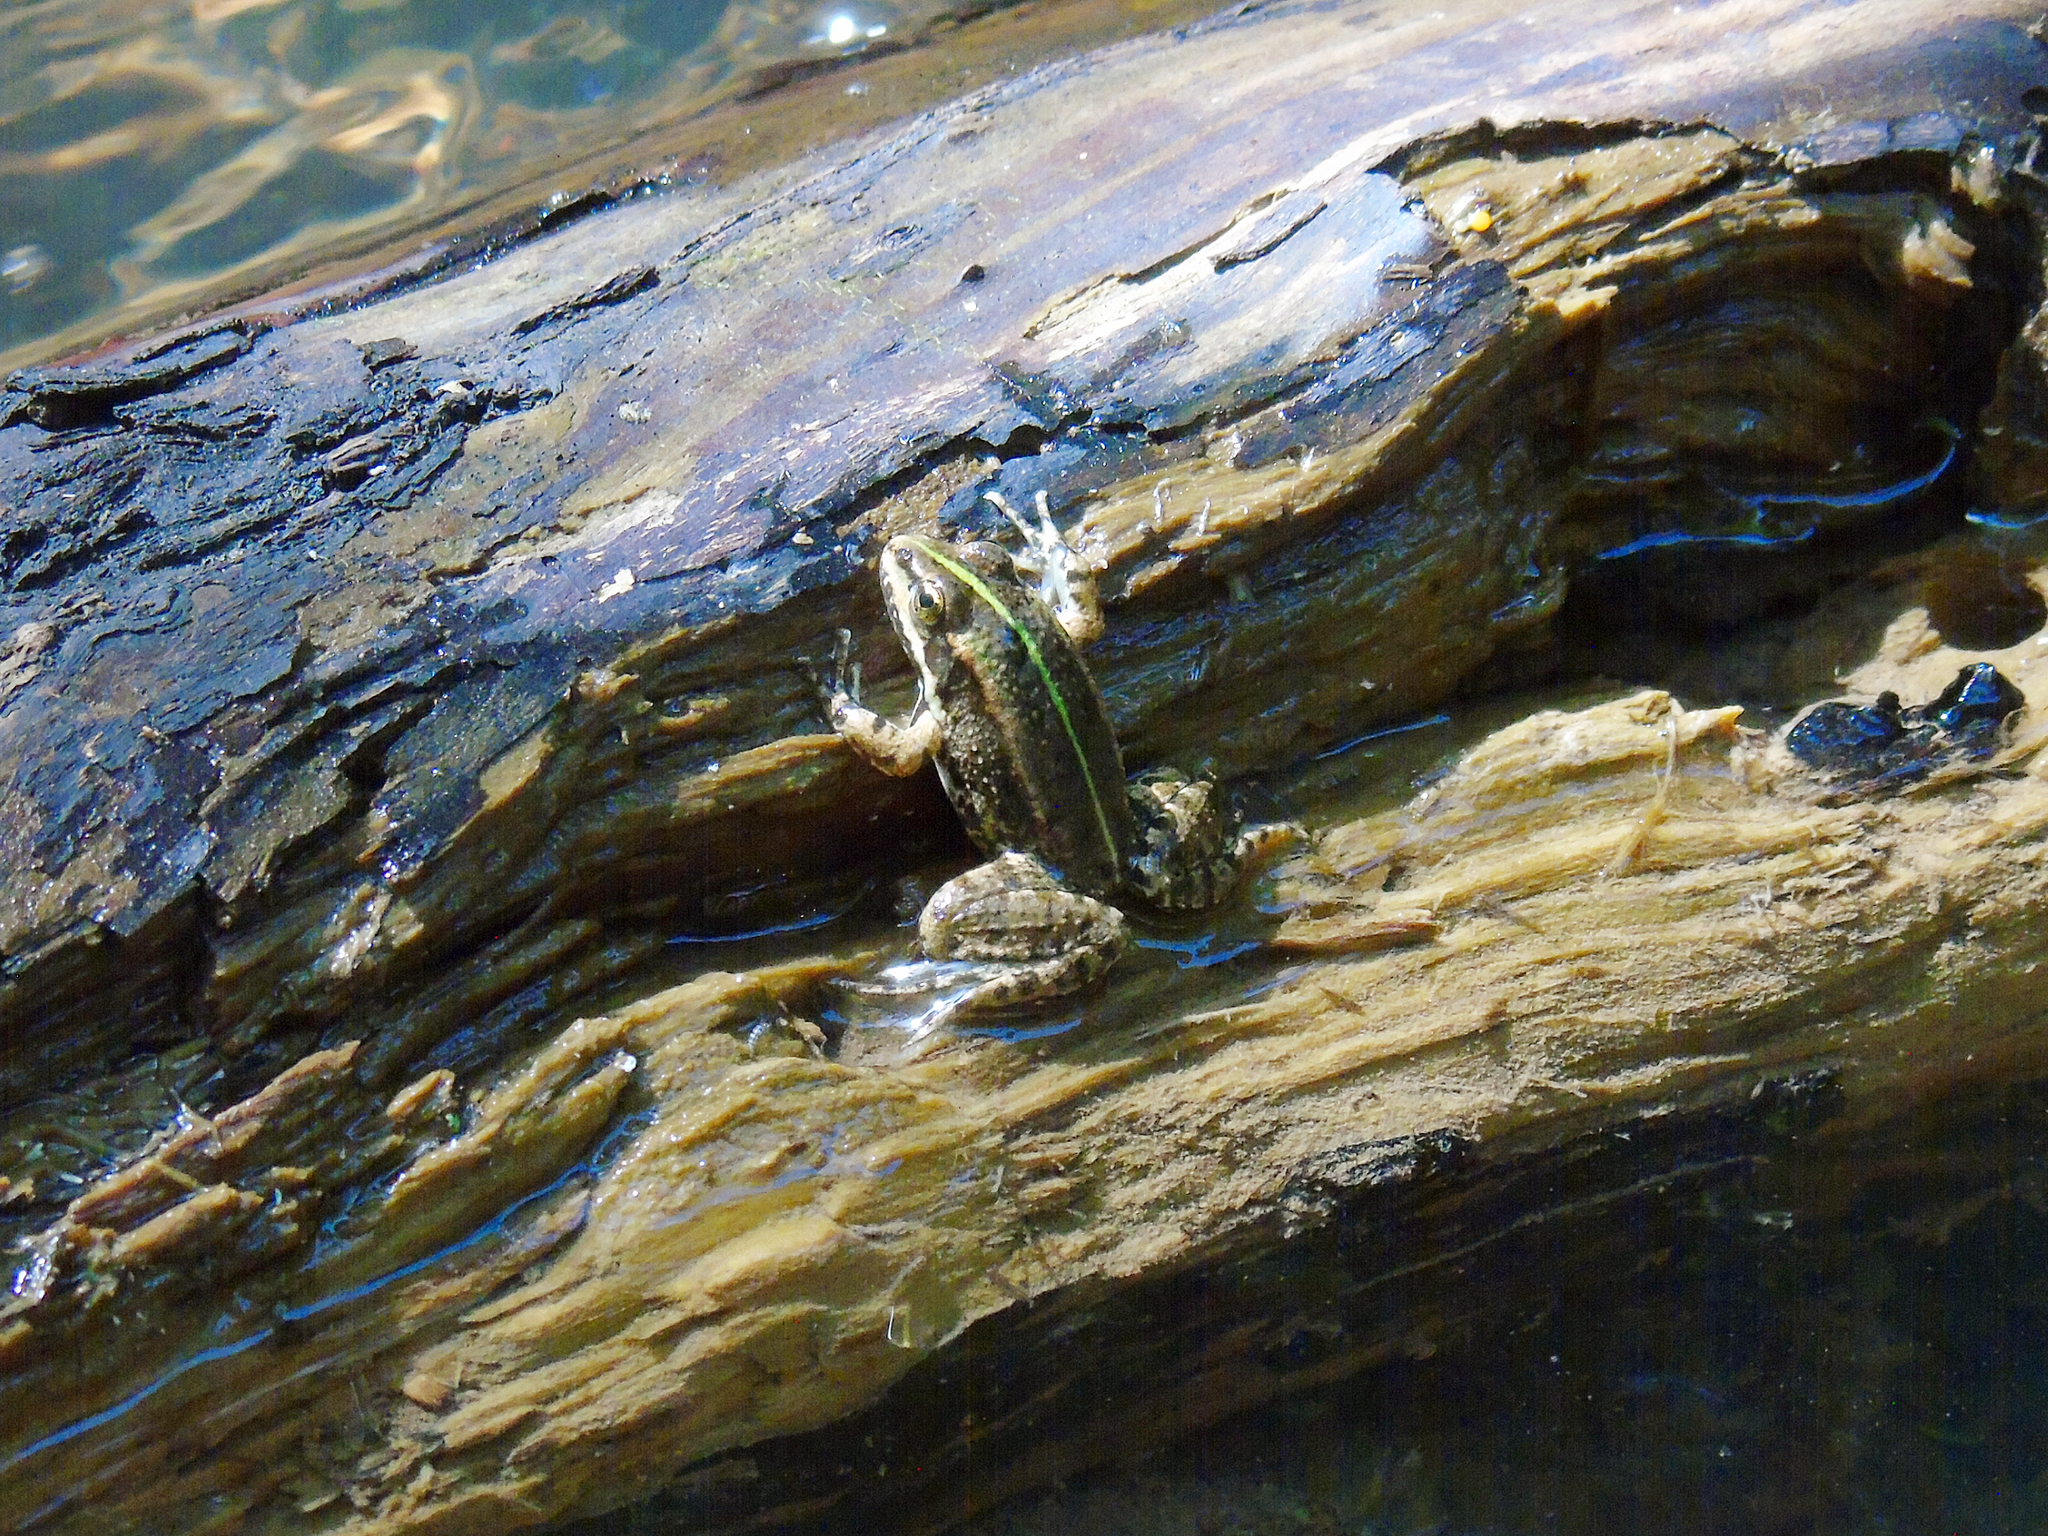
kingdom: Animalia
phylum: Chordata
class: Amphibia
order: Anura
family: Ranidae
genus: Pelophylax
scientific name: Pelophylax ridibundus
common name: Marsh frog
